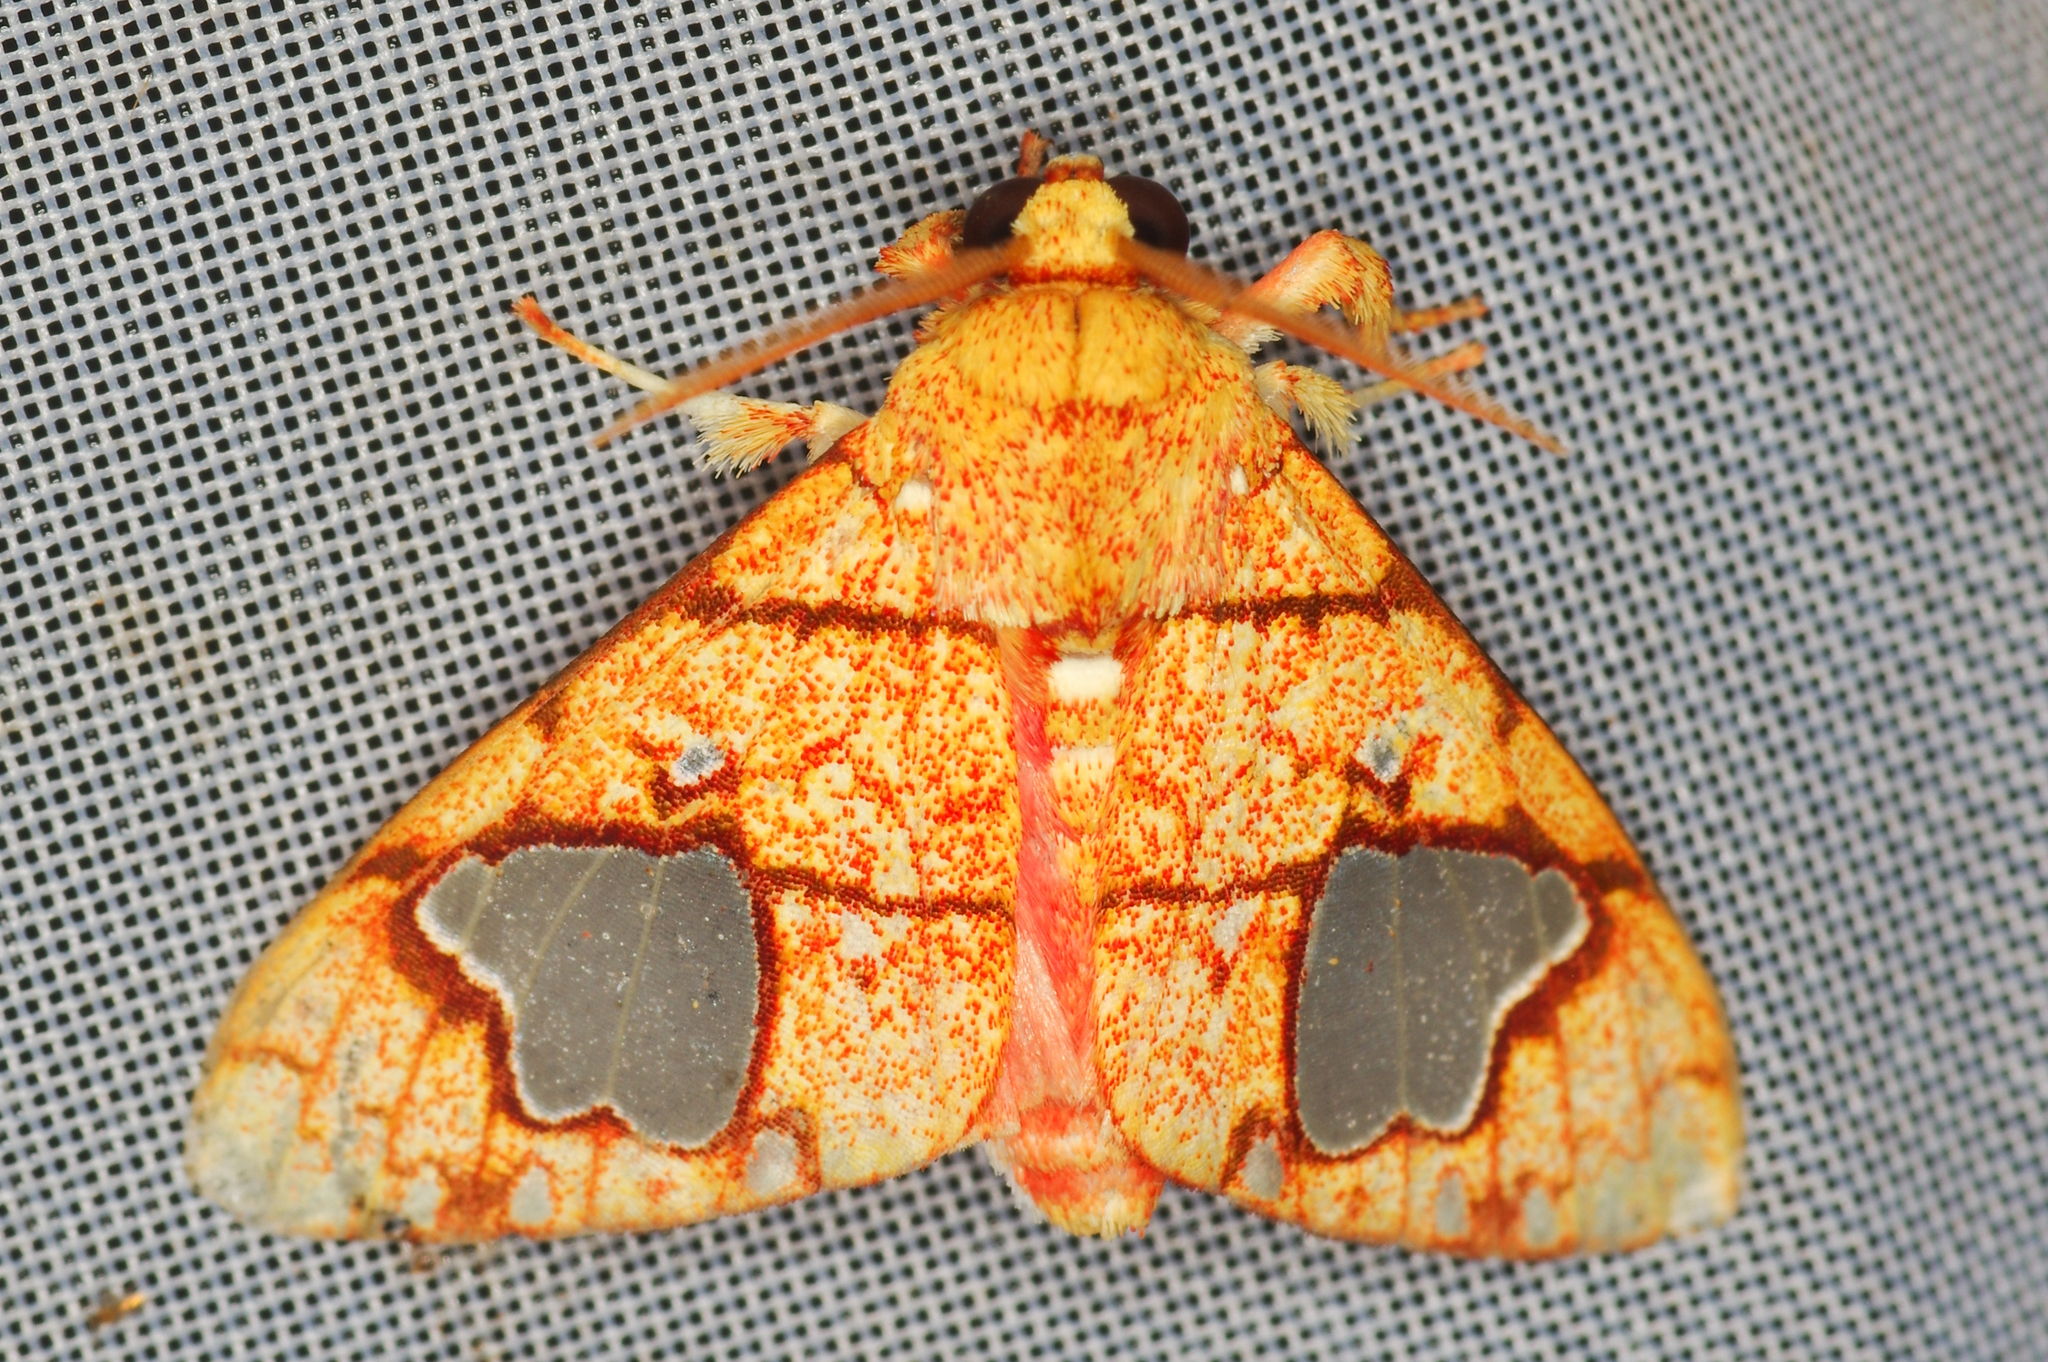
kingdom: Animalia
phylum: Arthropoda
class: Insecta
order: Lepidoptera
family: Erebidae
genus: Zatrephes
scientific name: Zatrephes trailii
